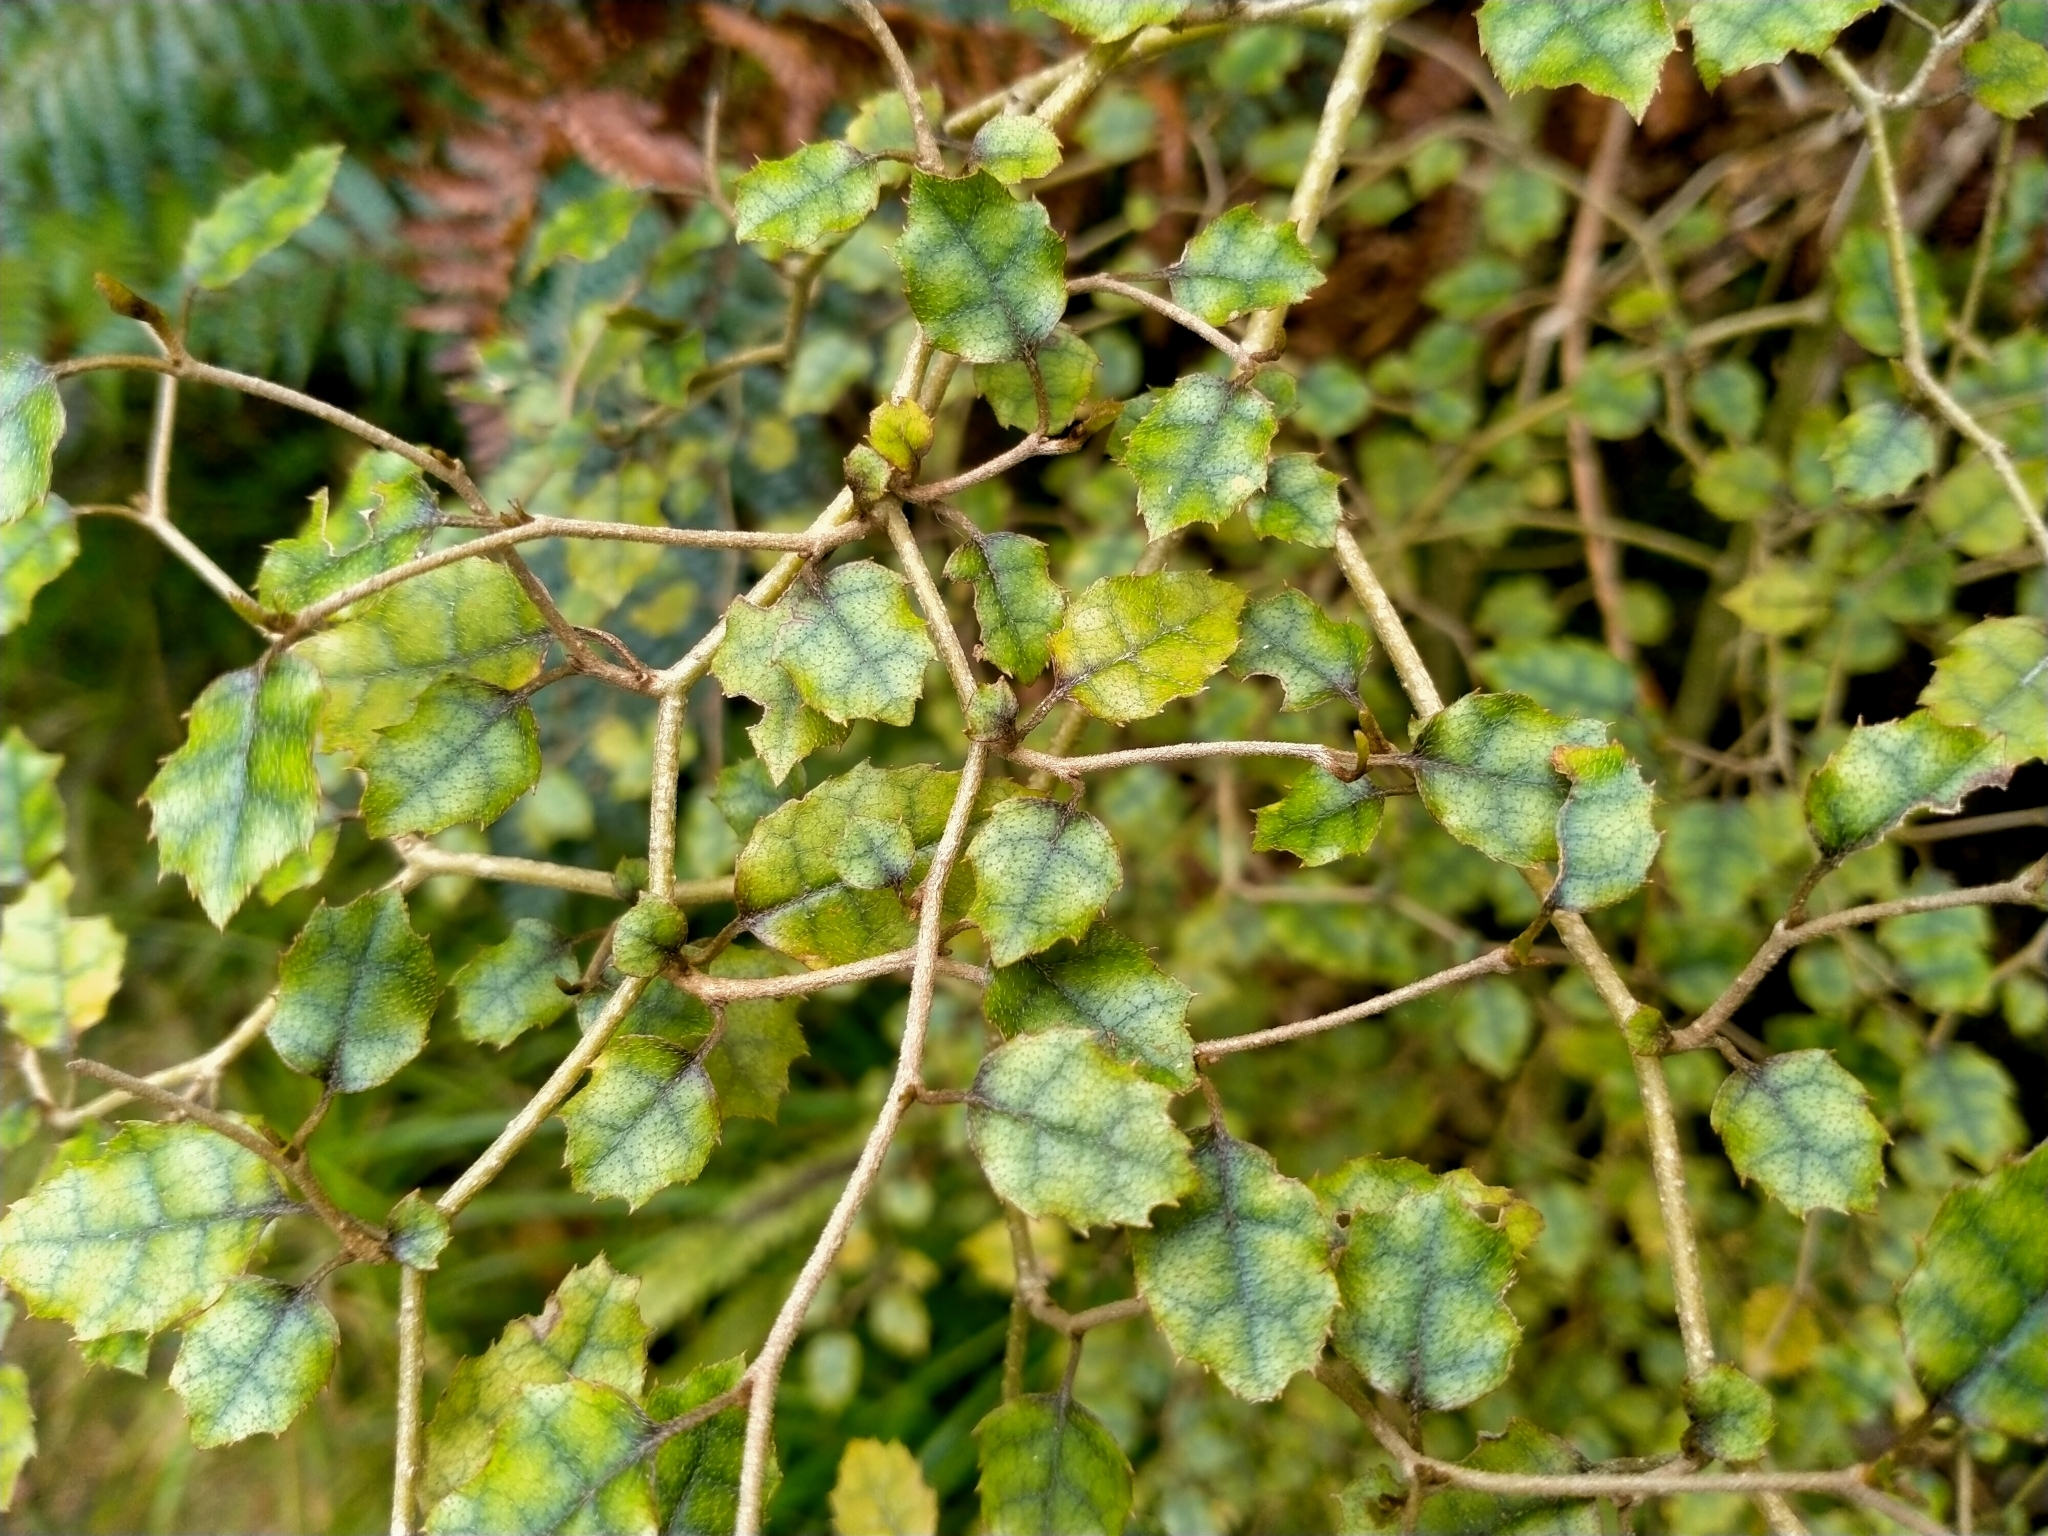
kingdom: Plantae
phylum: Tracheophyta
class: Magnoliopsida
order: Asterales
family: Rousseaceae
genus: Carpodetus
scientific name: Carpodetus serratus
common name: White mapau
